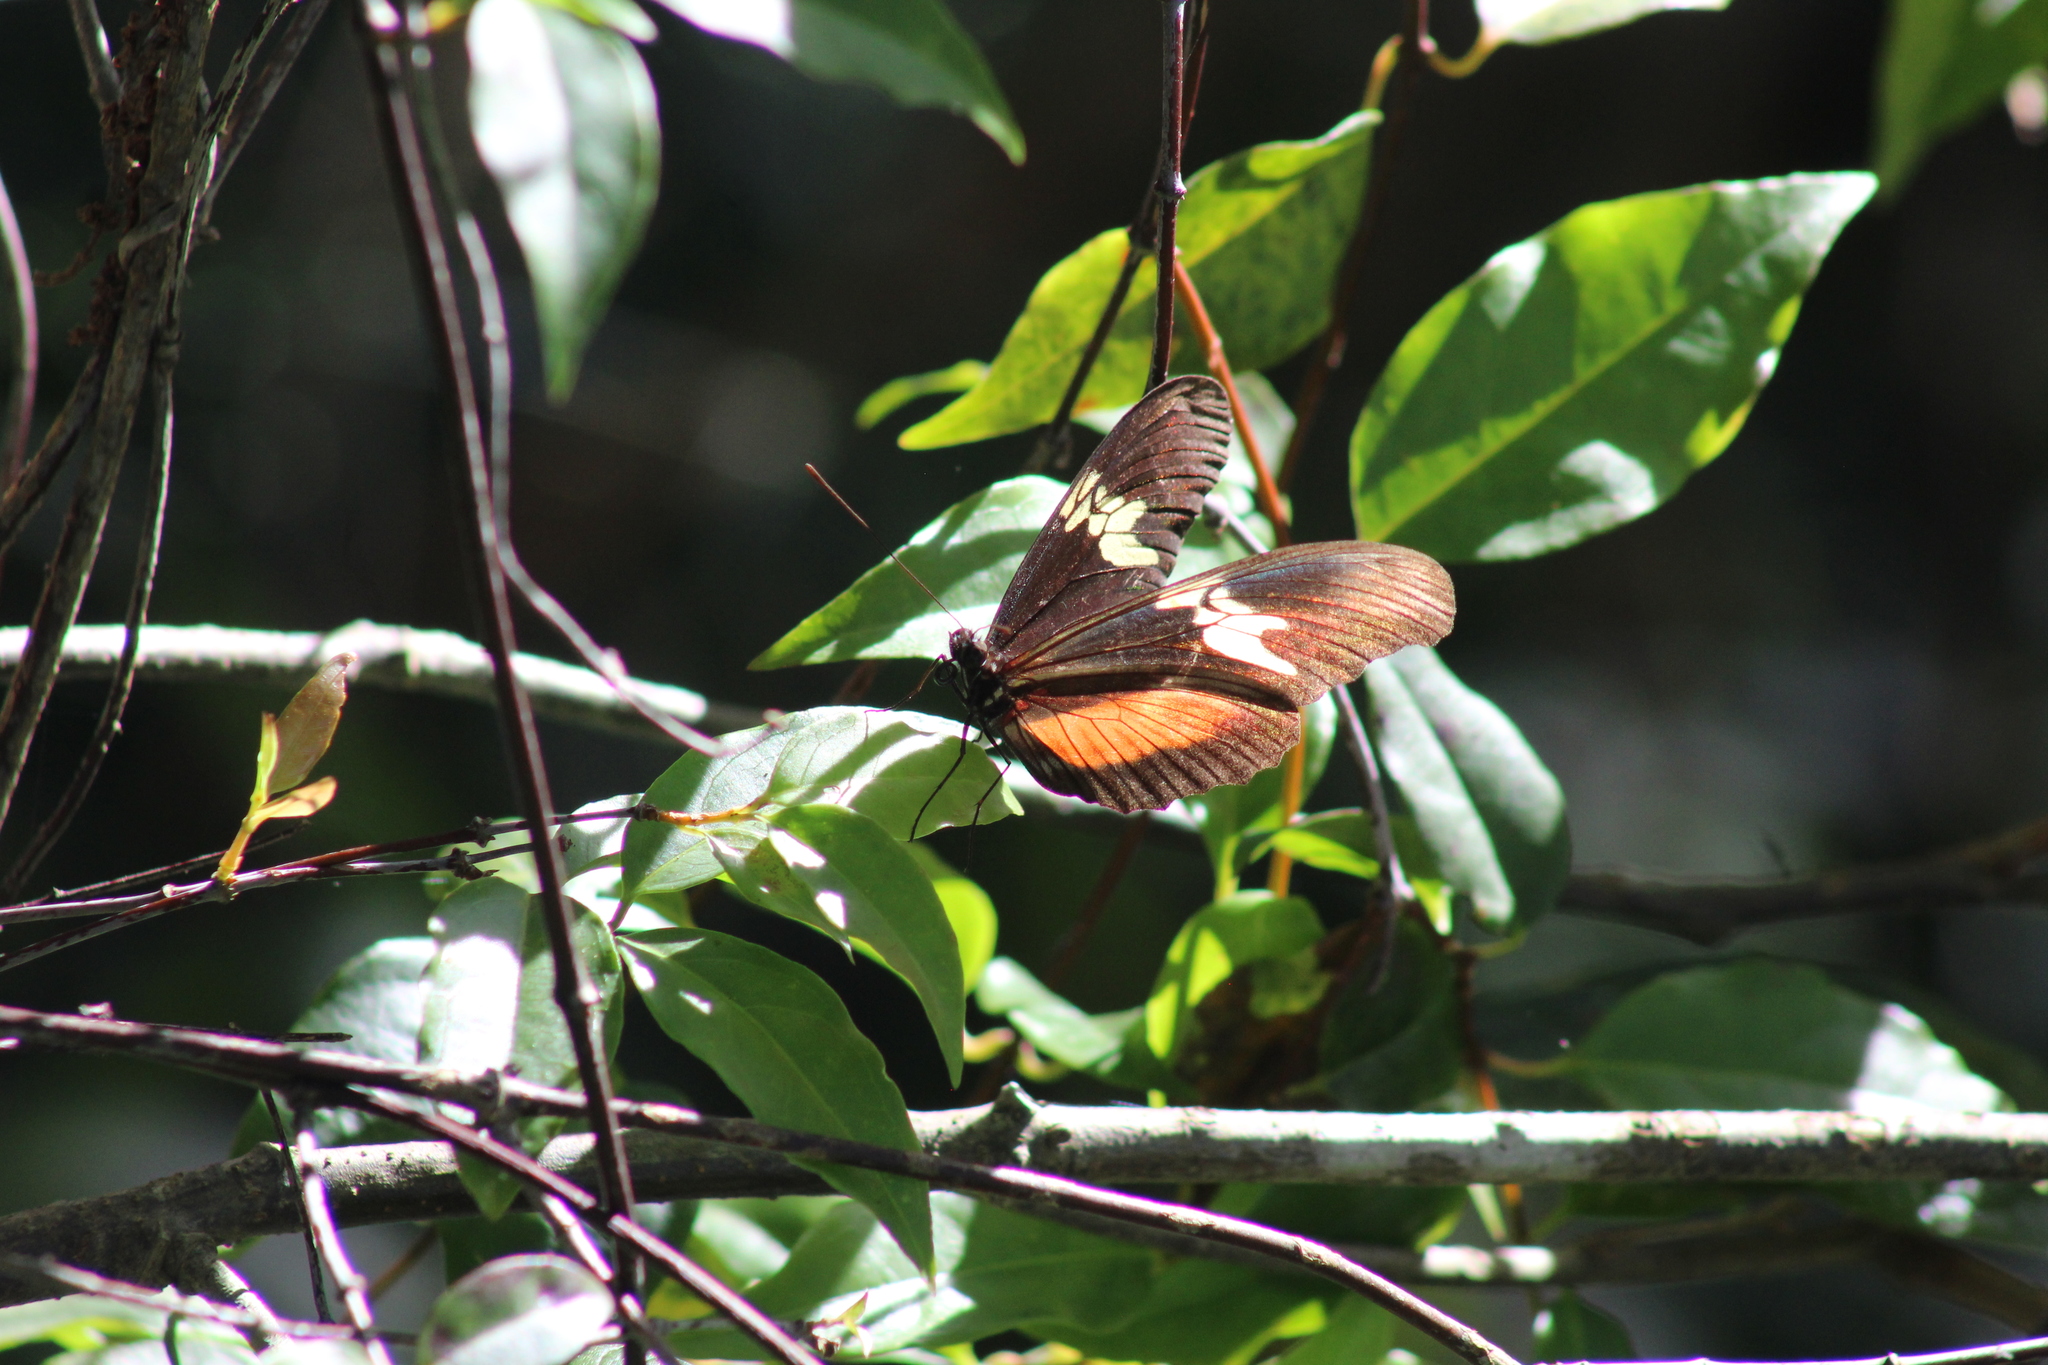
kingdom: Animalia
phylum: Arthropoda
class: Insecta
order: Lepidoptera
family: Nymphalidae
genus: Heliconius
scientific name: Heliconius hortense
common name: Mexican longwing
